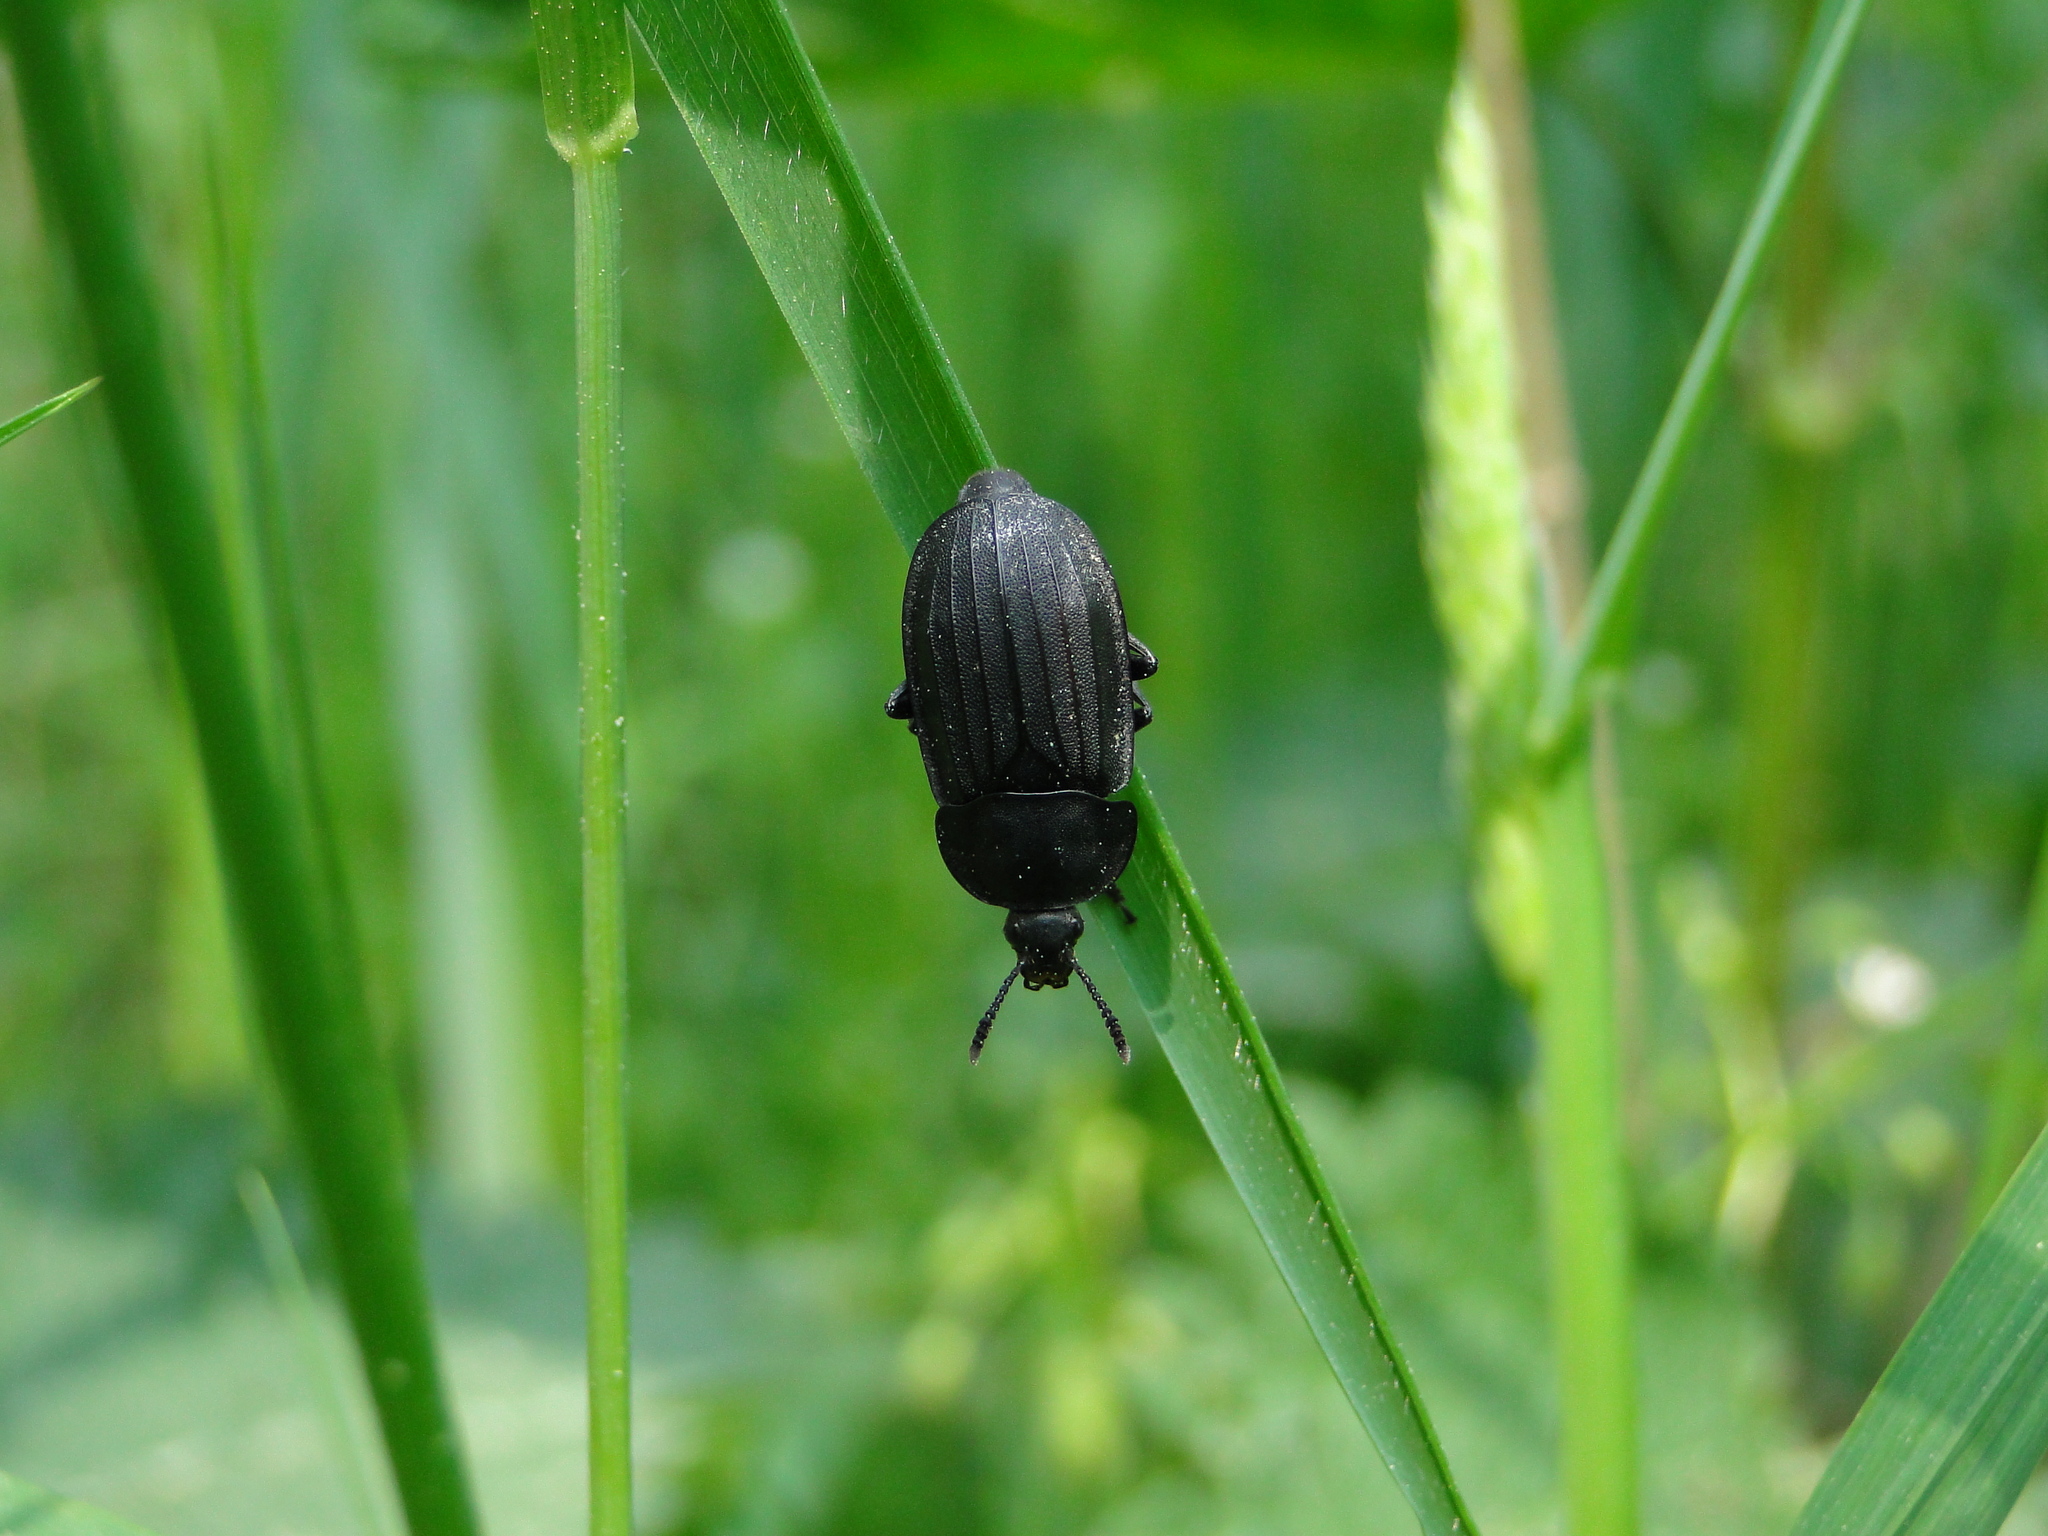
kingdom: Animalia
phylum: Arthropoda
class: Insecta
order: Coleoptera
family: Staphylinidae
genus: Silpha
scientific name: Silpha tristis
